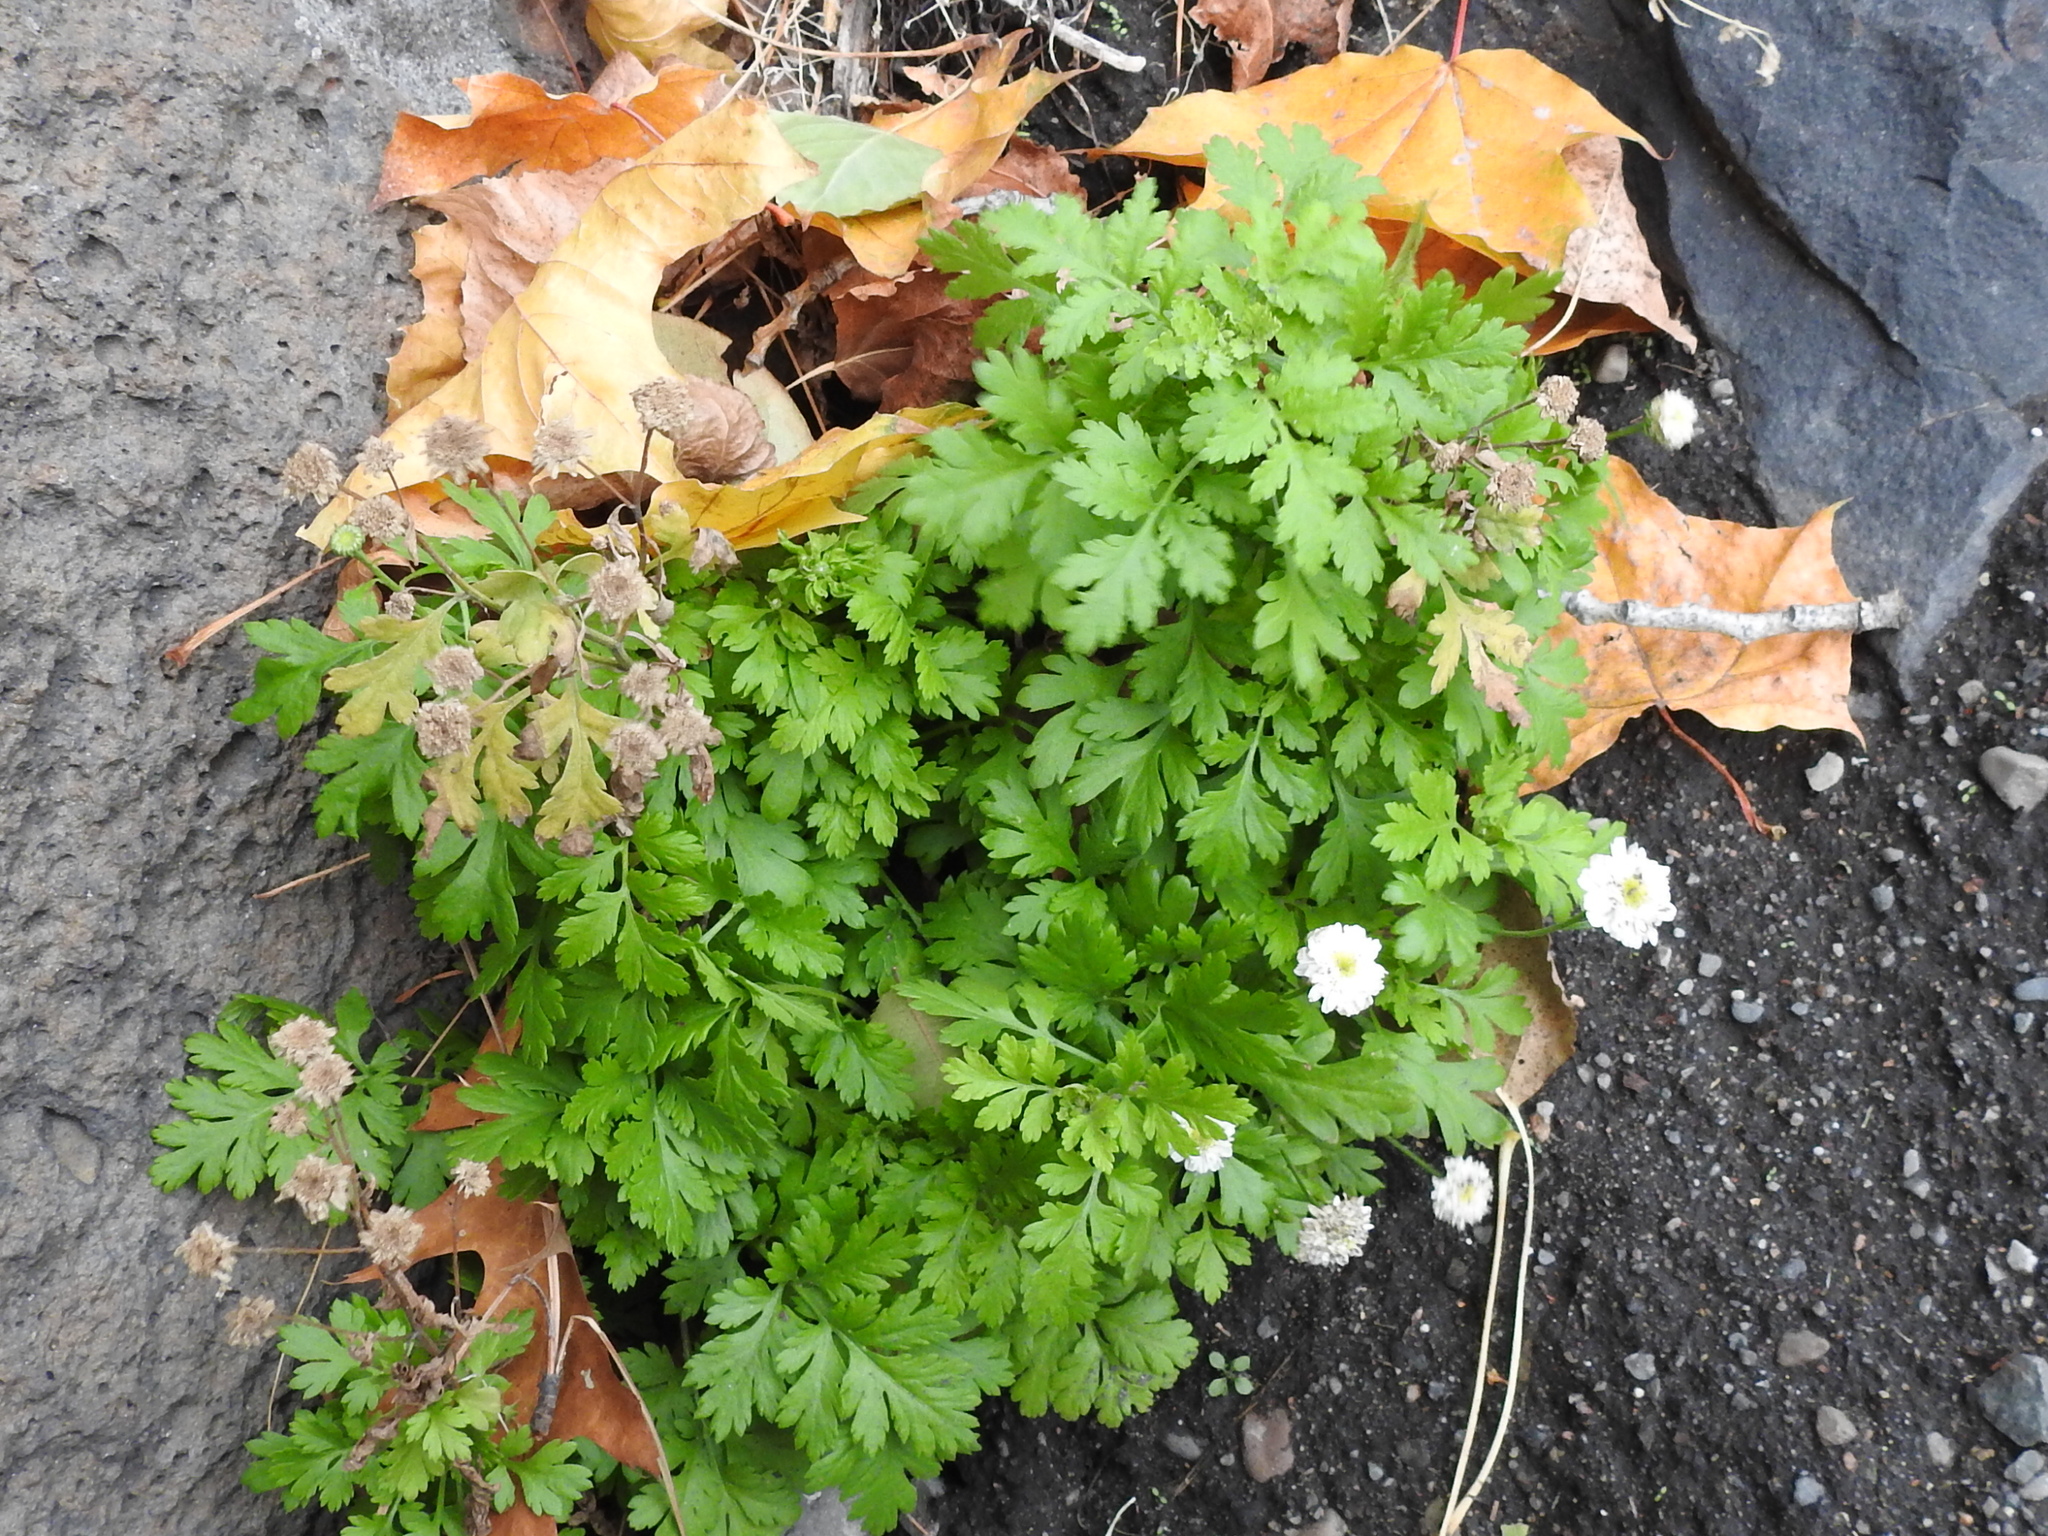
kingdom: Plantae
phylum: Tracheophyta
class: Magnoliopsida
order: Asterales
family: Asteraceae
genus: Tanacetum
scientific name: Tanacetum parthenium
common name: Feverfew
